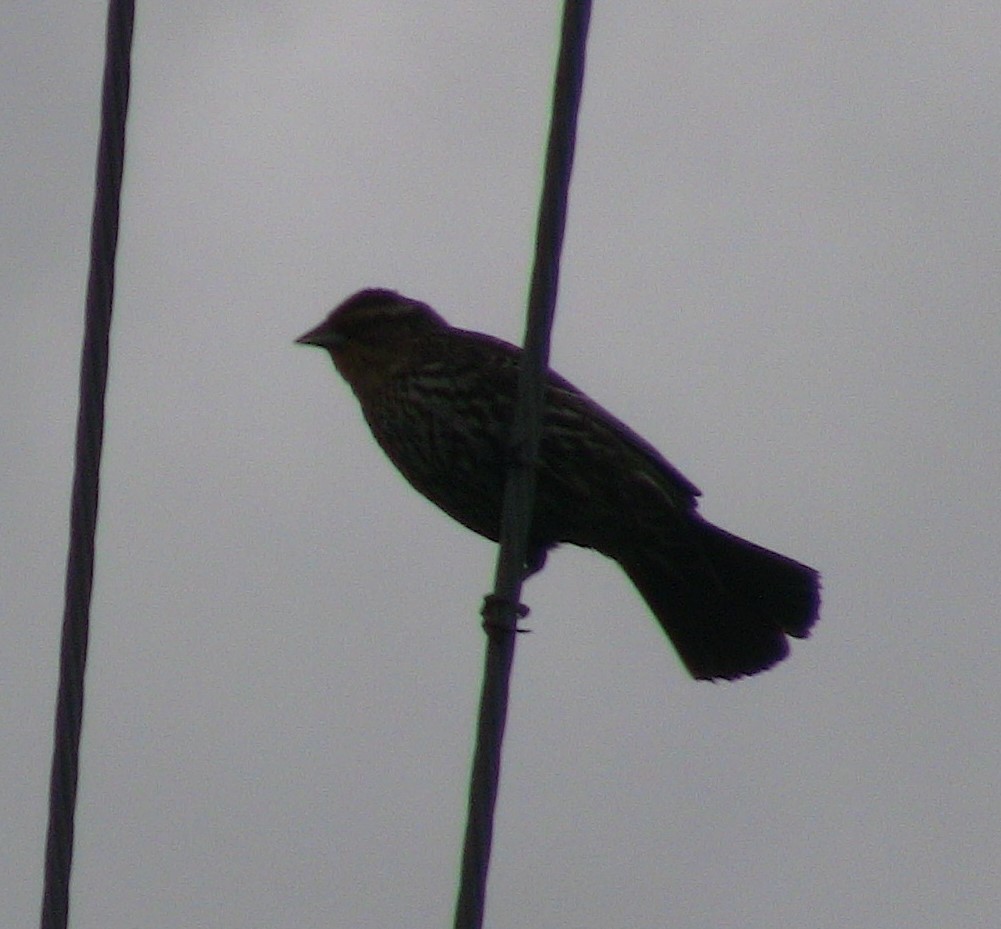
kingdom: Animalia
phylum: Chordata
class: Aves
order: Passeriformes
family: Icteridae
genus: Agelaius
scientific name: Agelaius phoeniceus
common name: Red-winged blackbird
